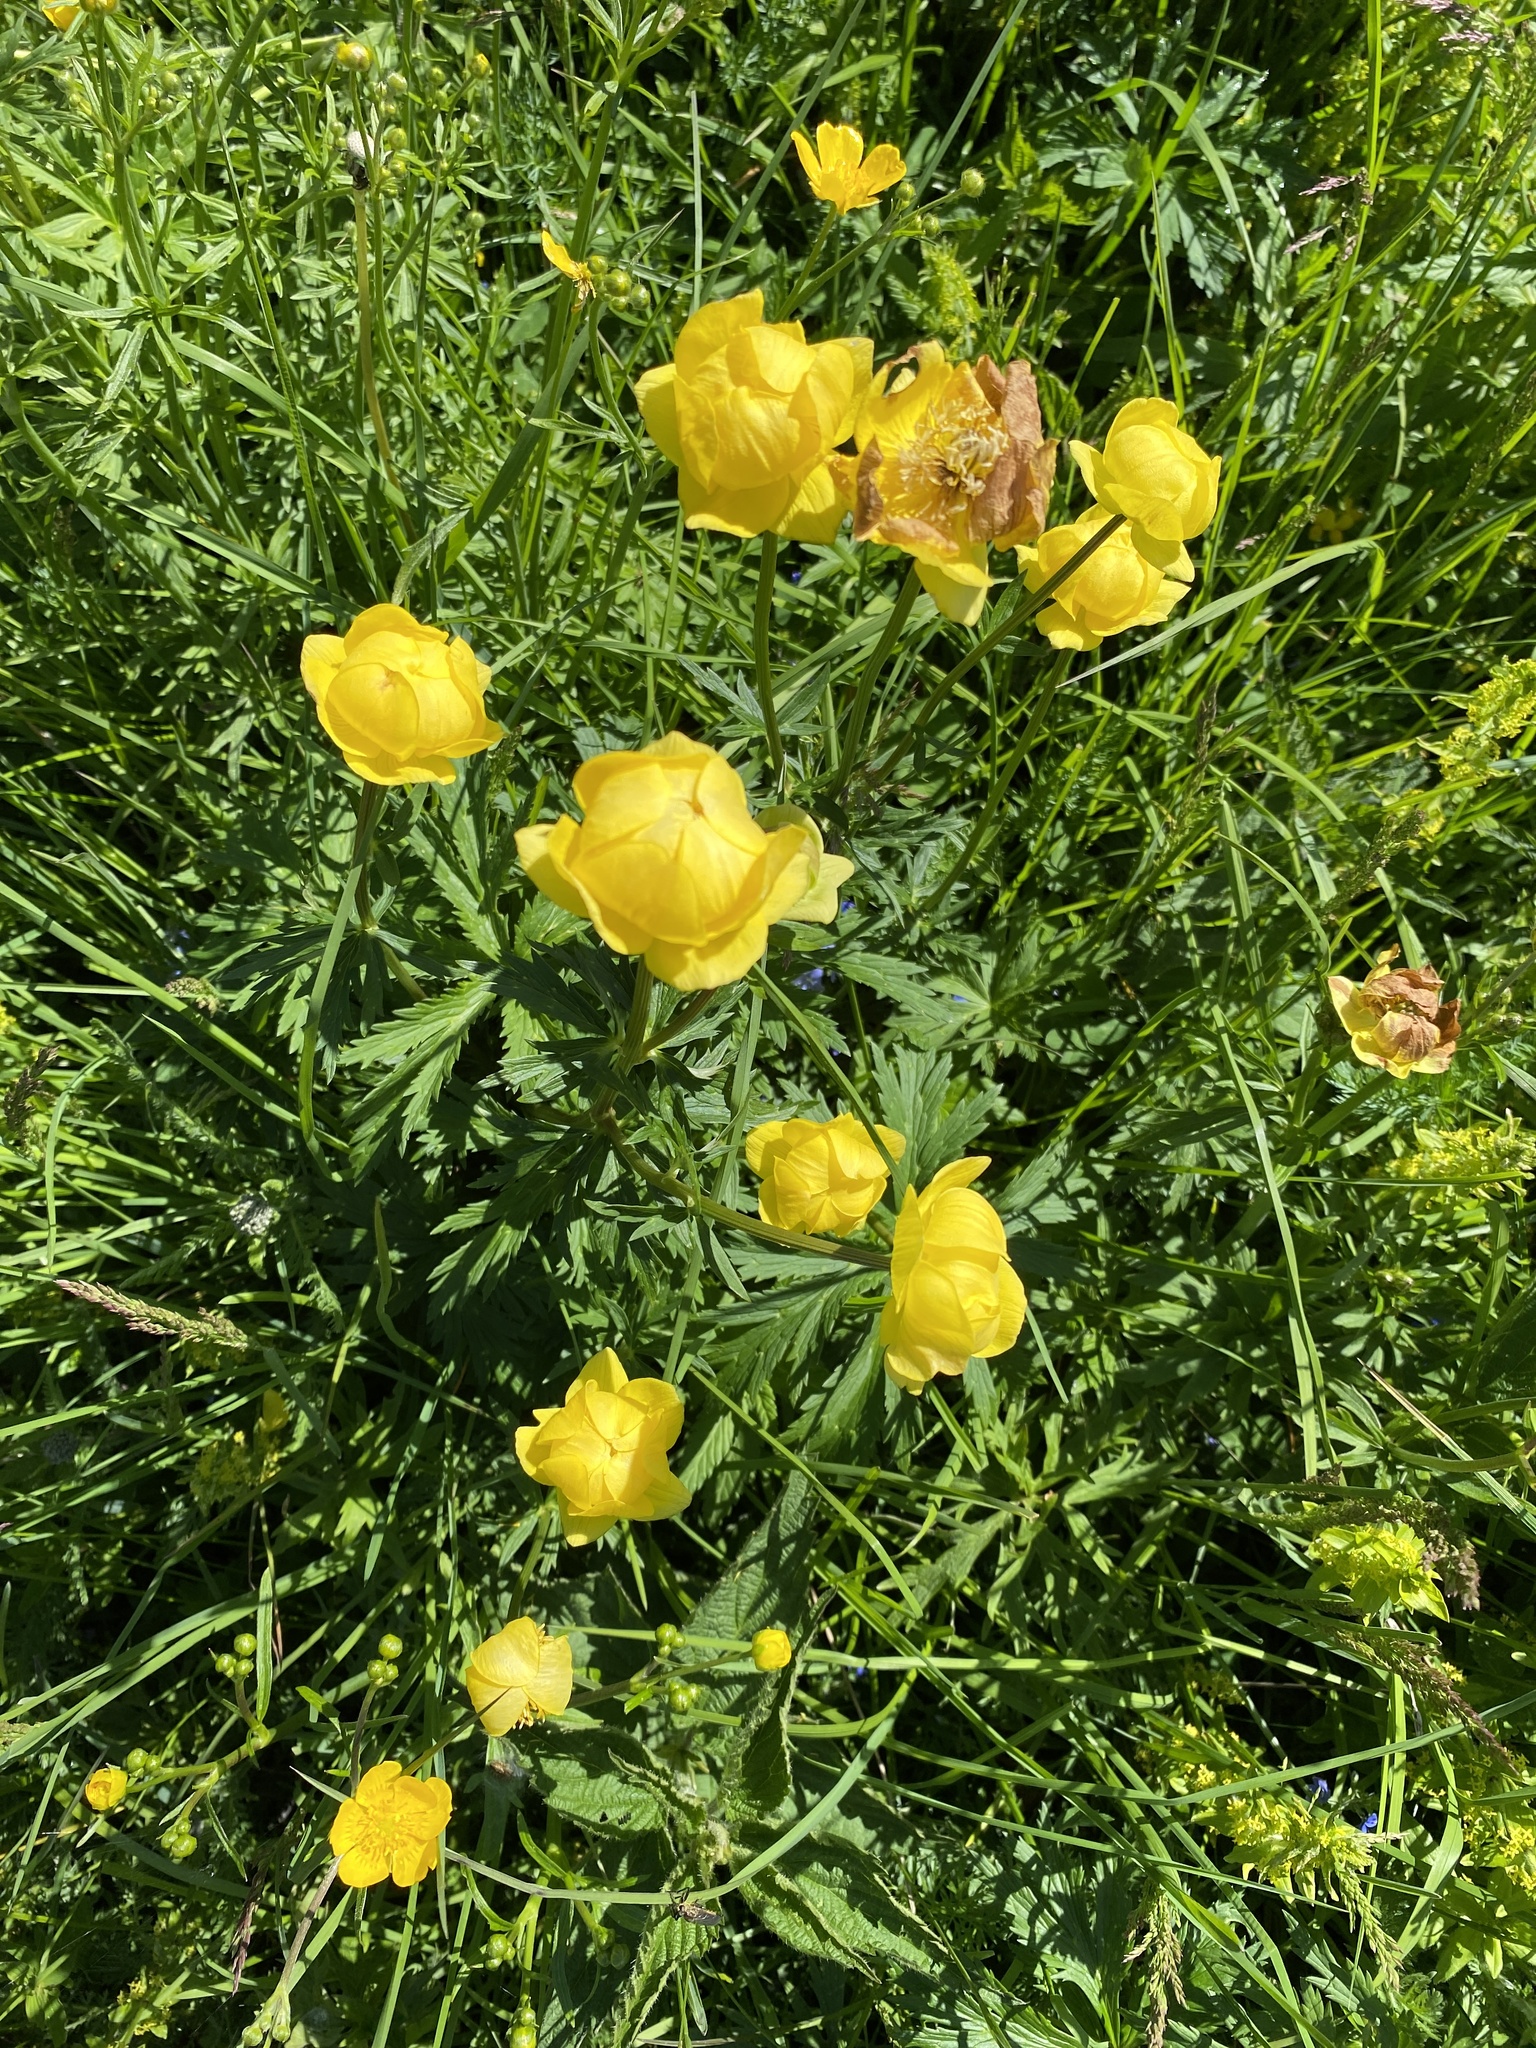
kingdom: Plantae
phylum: Tracheophyta
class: Magnoliopsida
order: Ranunculales
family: Ranunculaceae
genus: Trollius
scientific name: Trollius europaeus
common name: European globeflower
